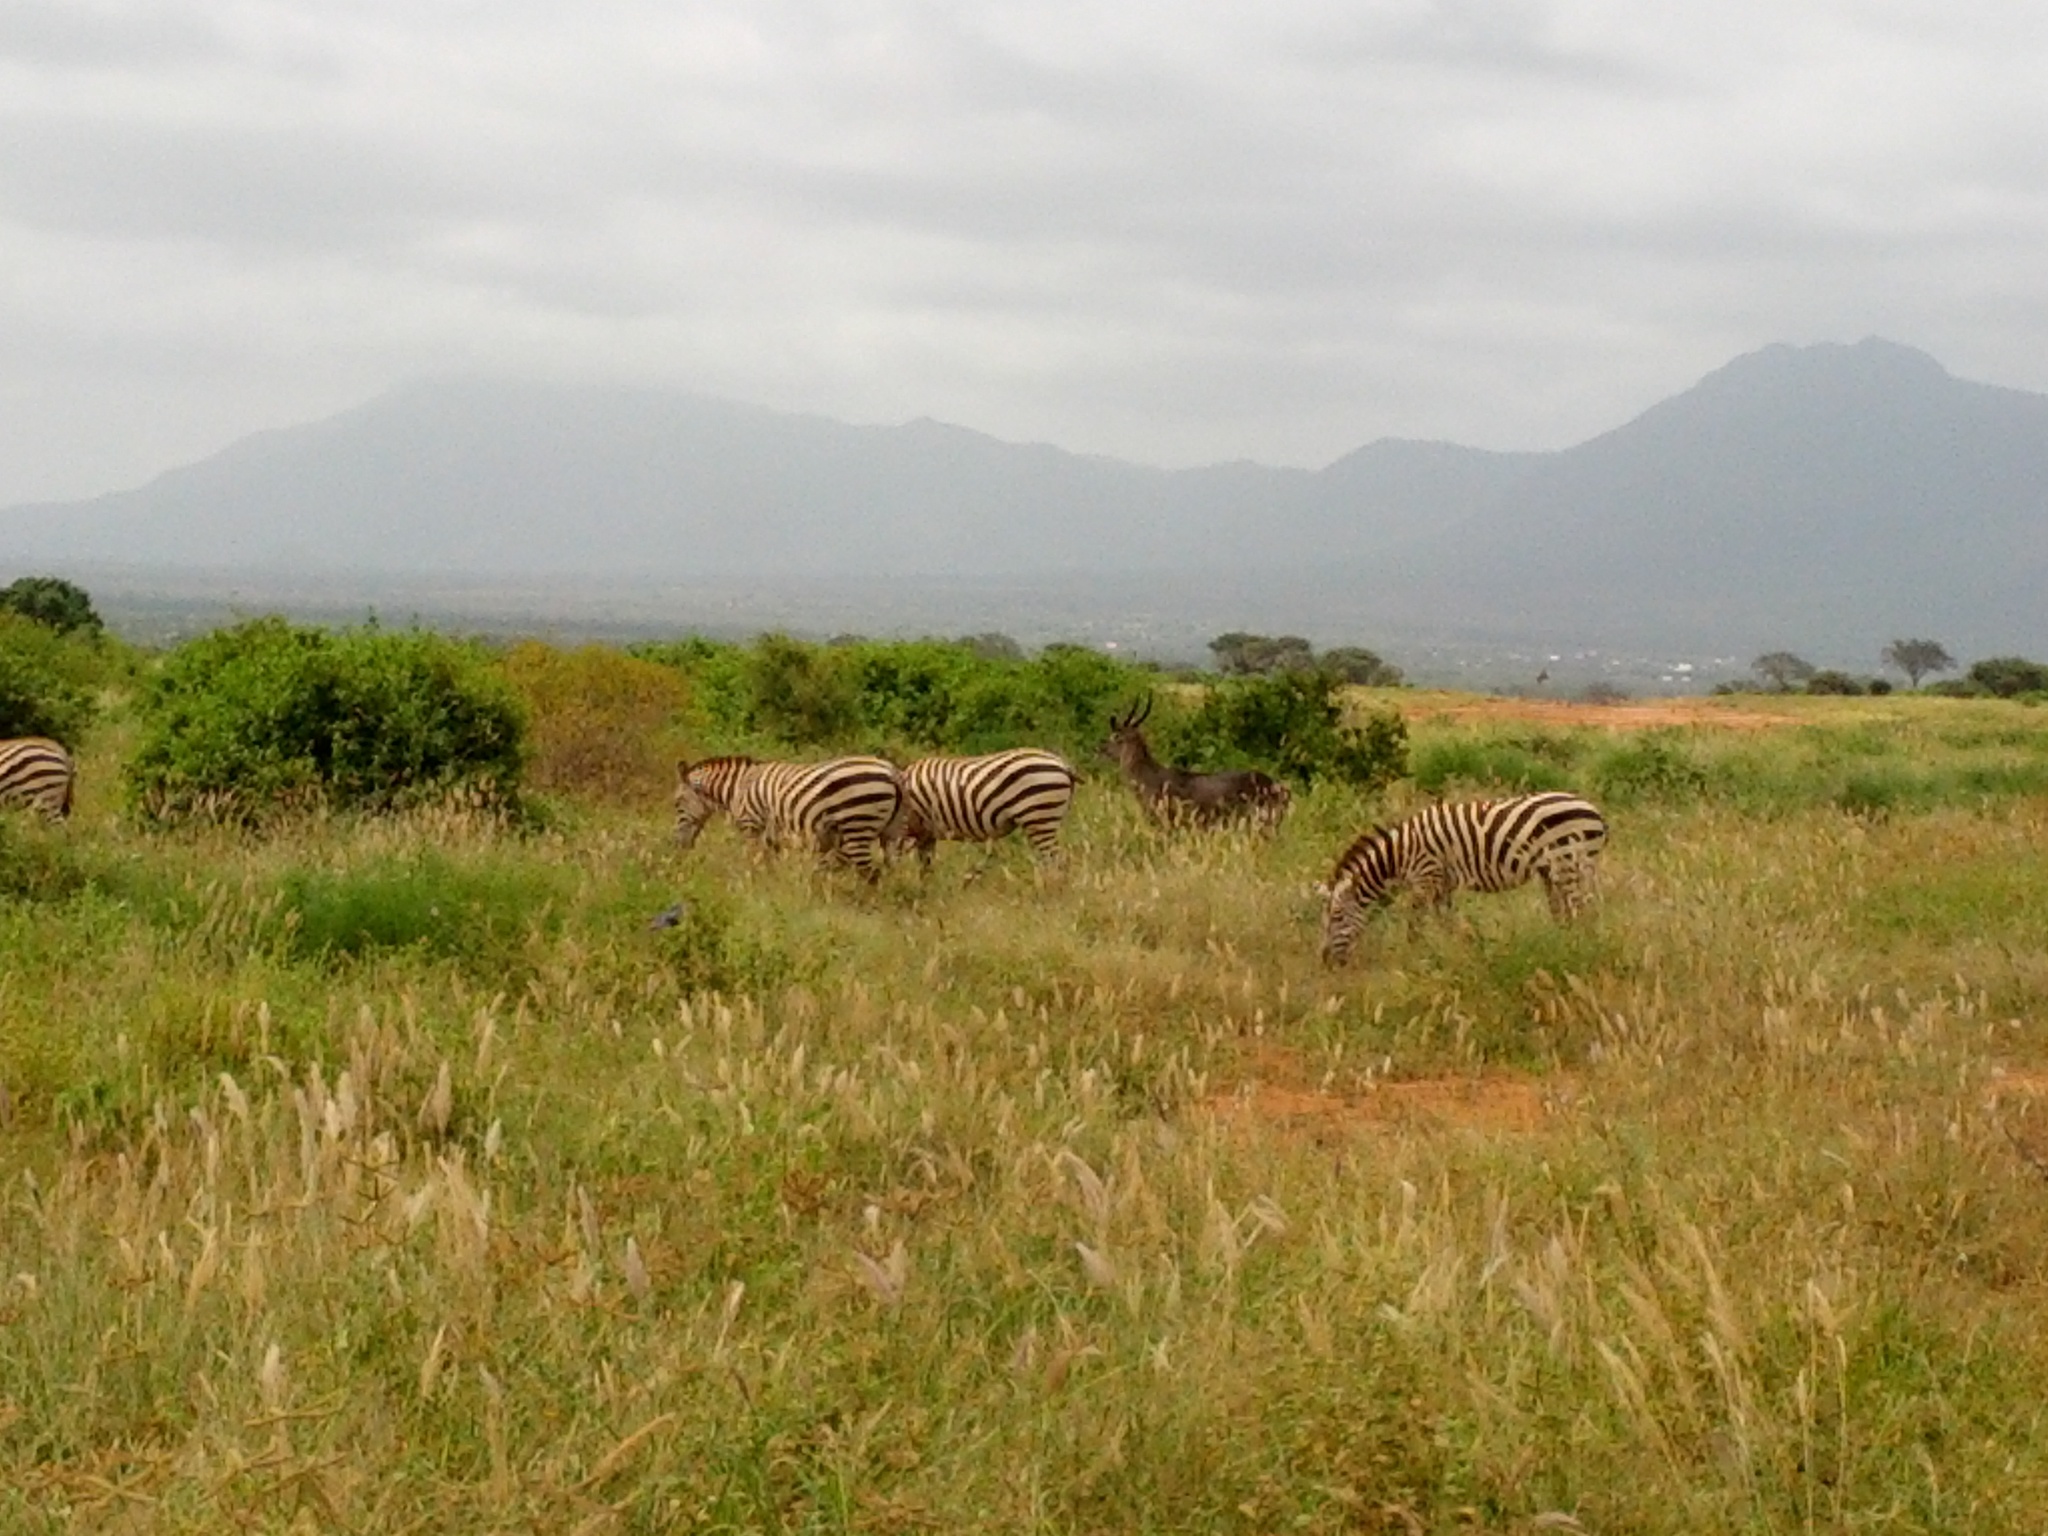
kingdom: Animalia
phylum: Chordata
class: Mammalia
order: Perissodactyla
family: Equidae
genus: Equus
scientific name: Equus quagga
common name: Plains zebra
